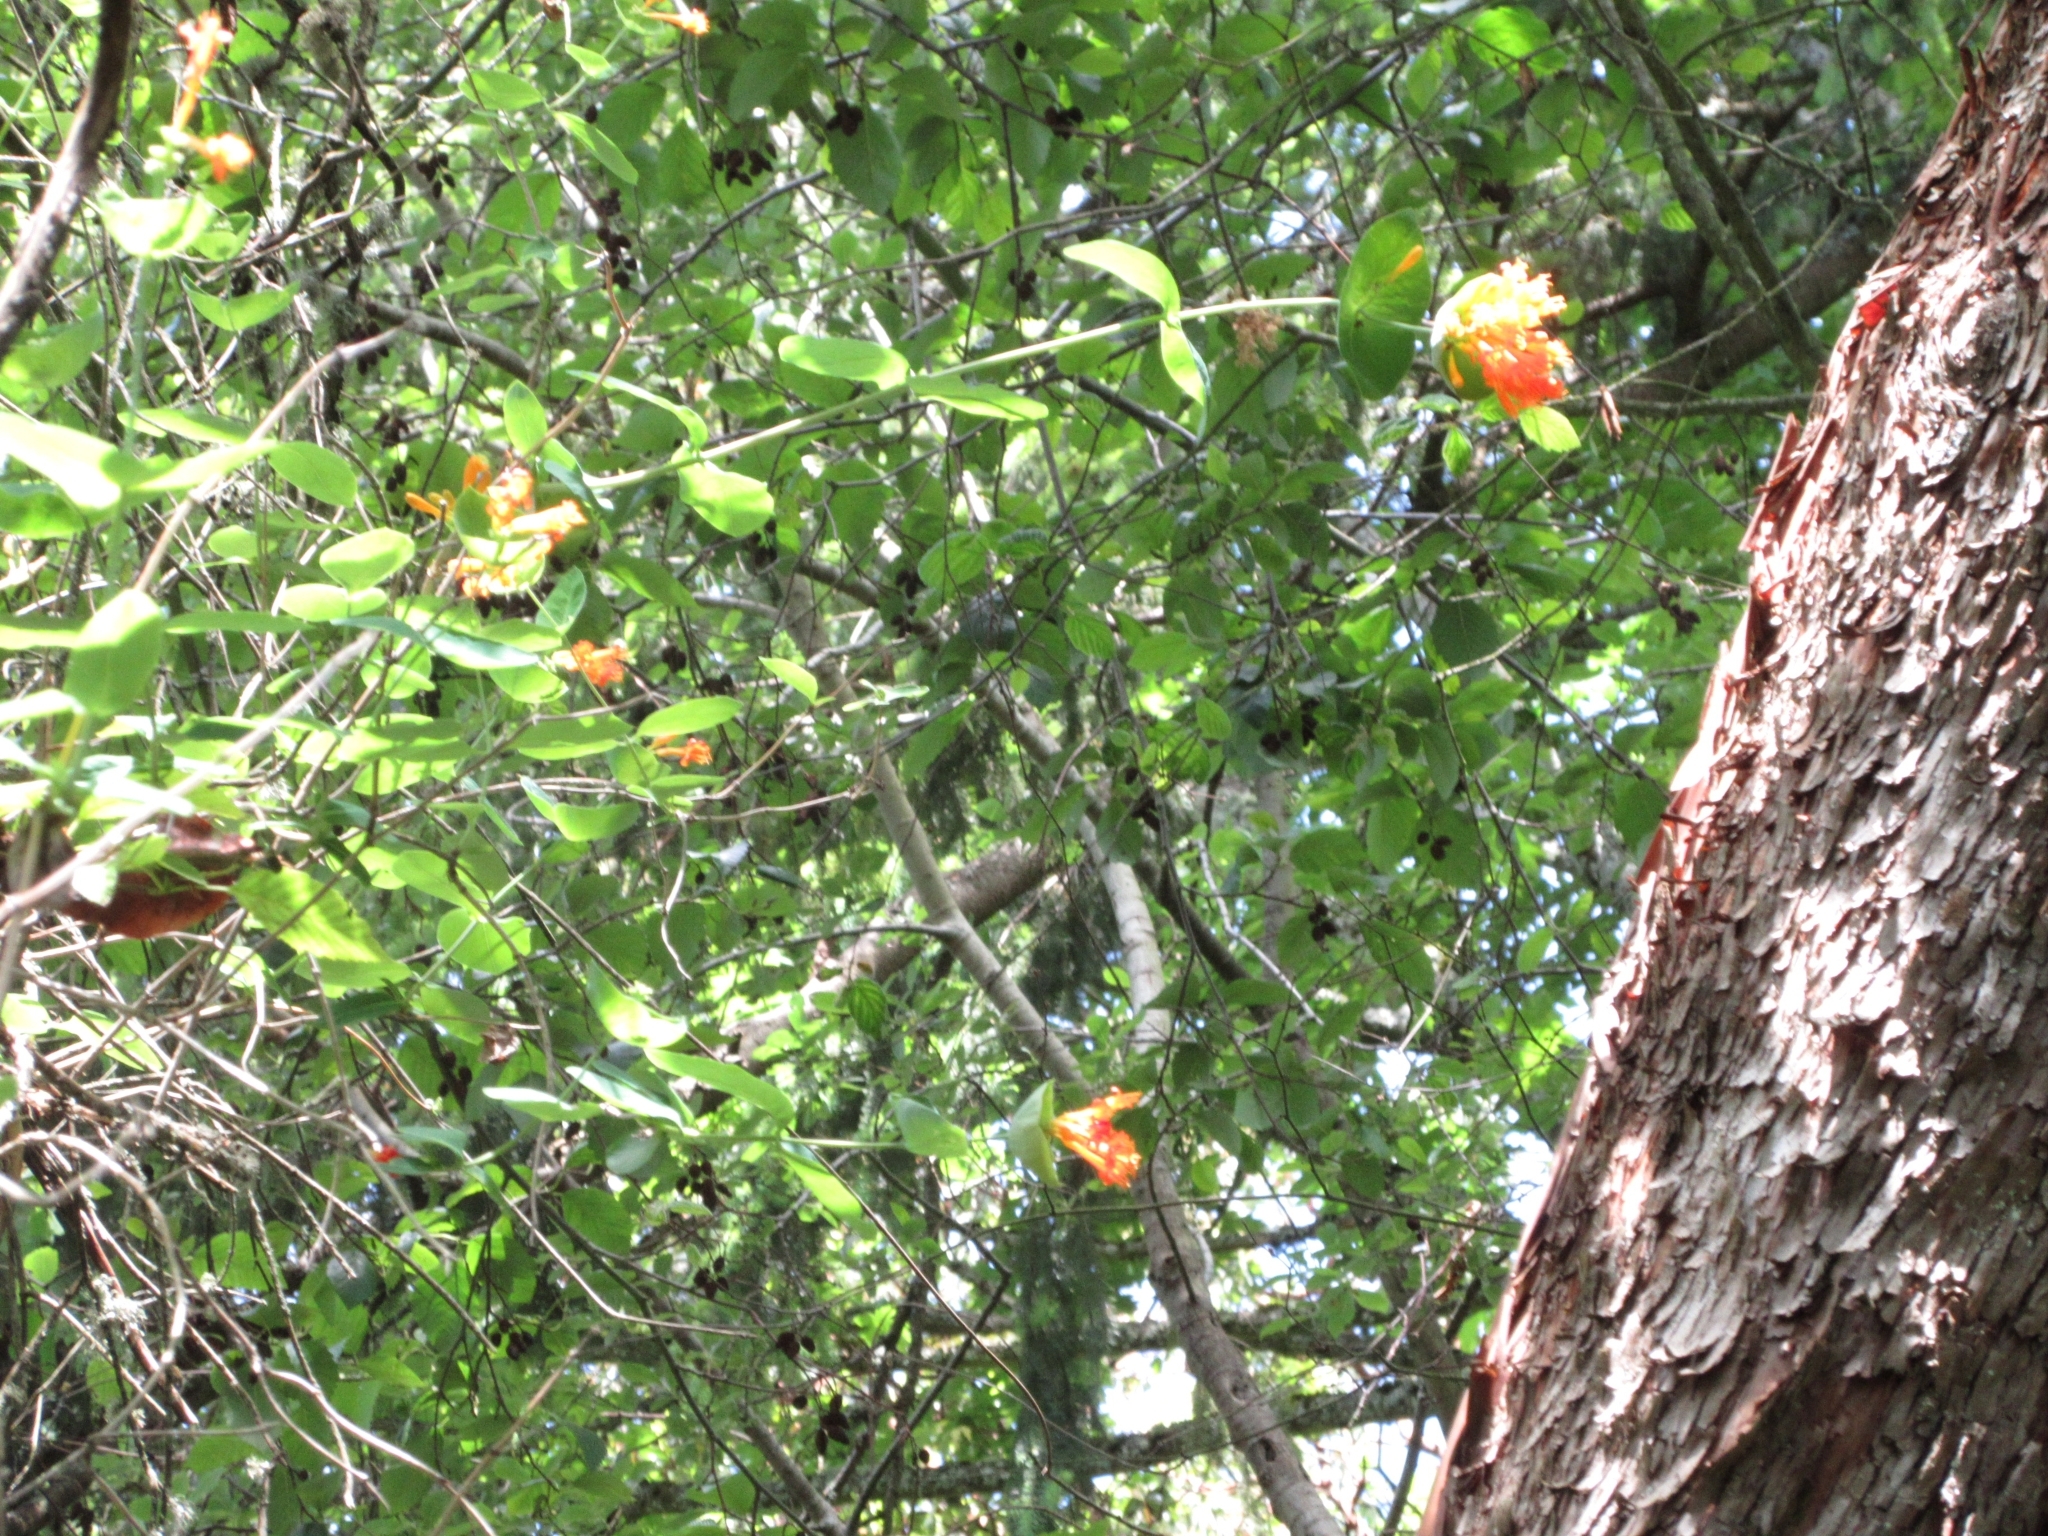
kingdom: Plantae
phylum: Tracheophyta
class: Magnoliopsida
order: Dipsacales
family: Caprifoliaceae
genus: Lonicera
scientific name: Lonicera ciliosa
